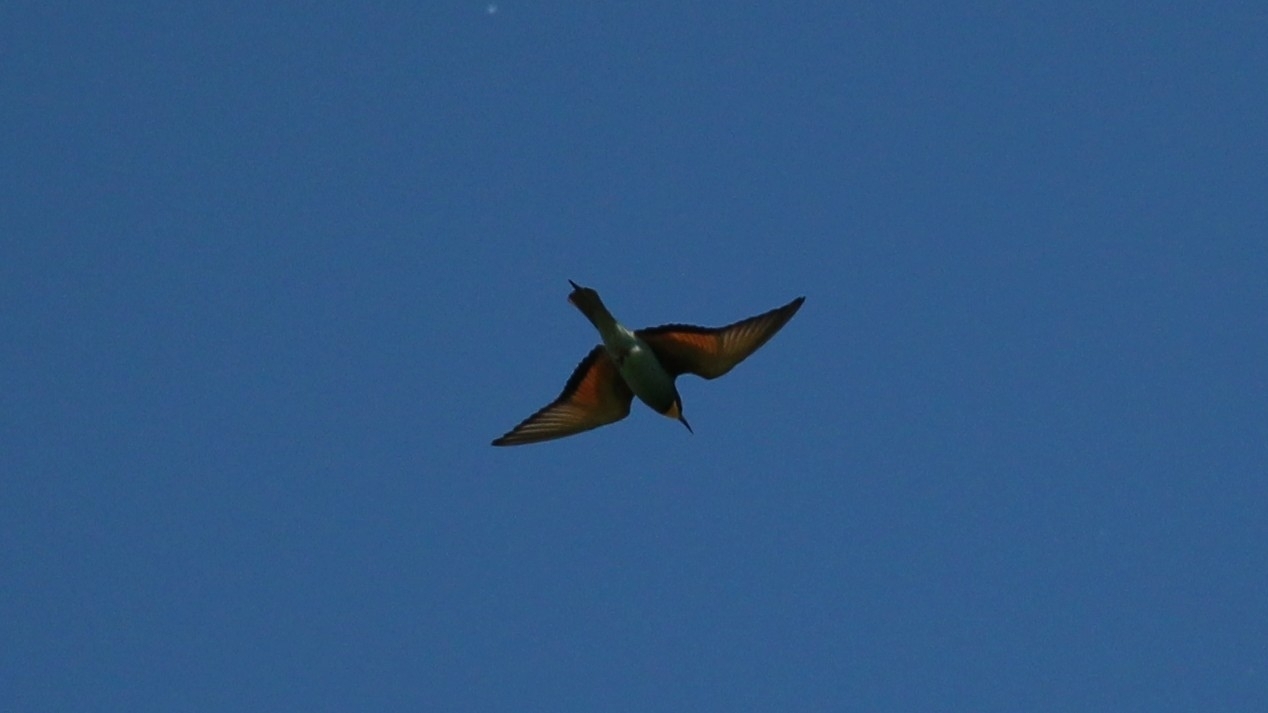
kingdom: Animalia
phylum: Chordata
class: Aves
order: Coraciiformes
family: Meropidae
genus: Merops
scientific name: Merops apiaster
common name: European bee-eater
